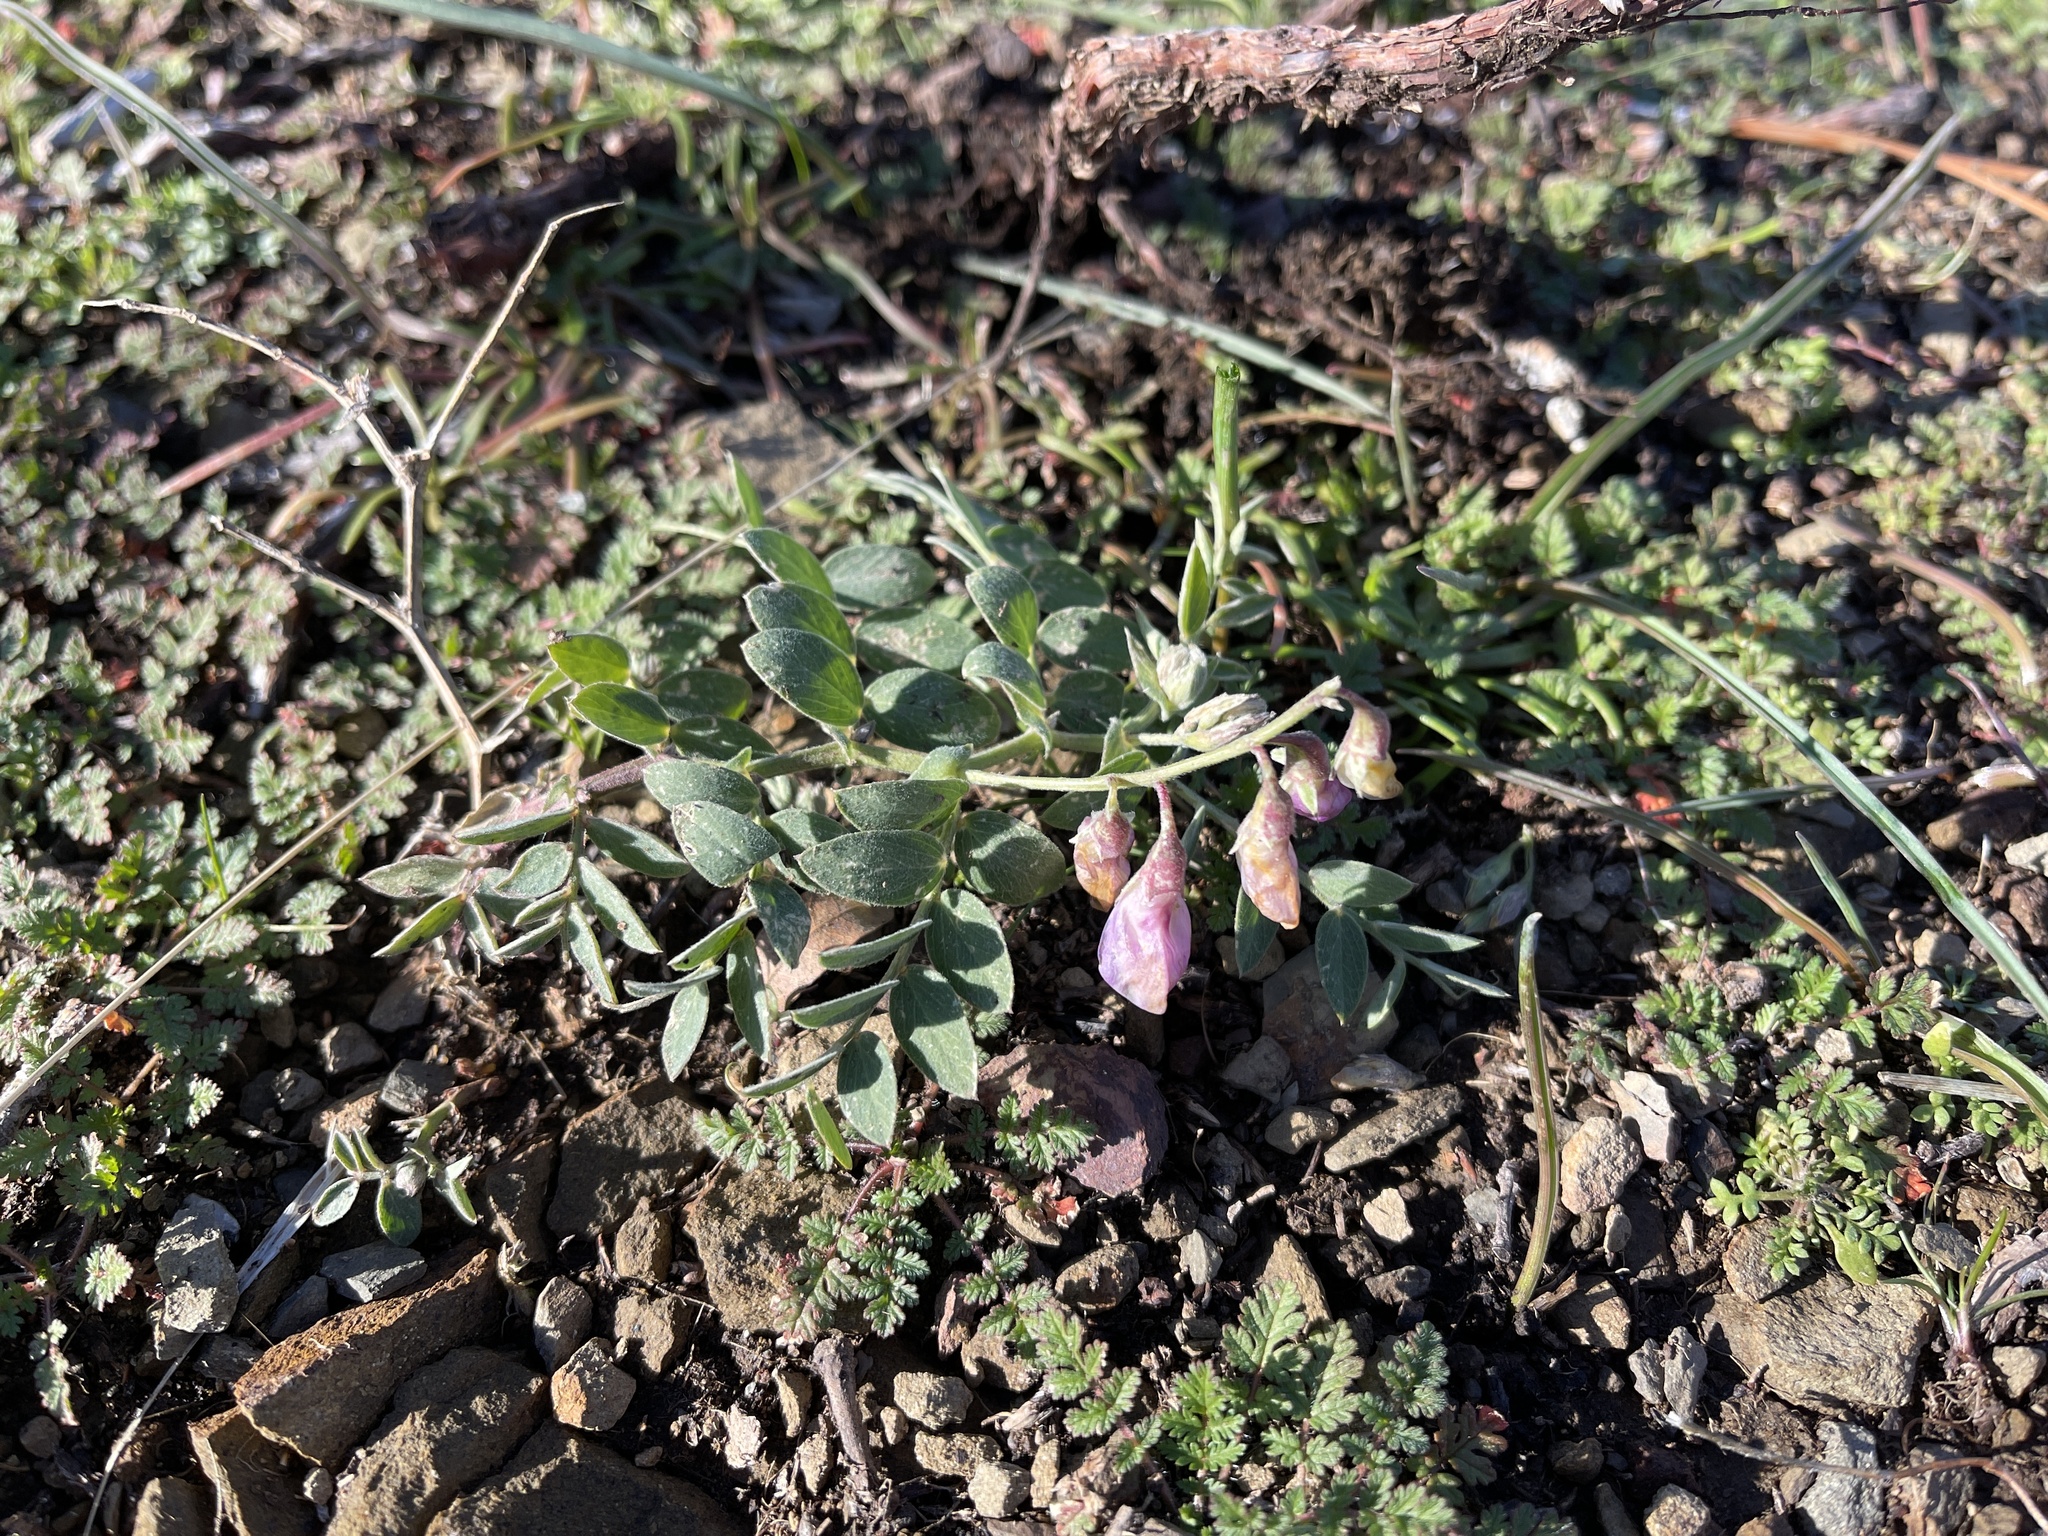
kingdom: Plantae
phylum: Tracheophyta
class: Magnoliopsida
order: Fabales
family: Fabaceae
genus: Lathyrus
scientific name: Lathyrus vestitus
